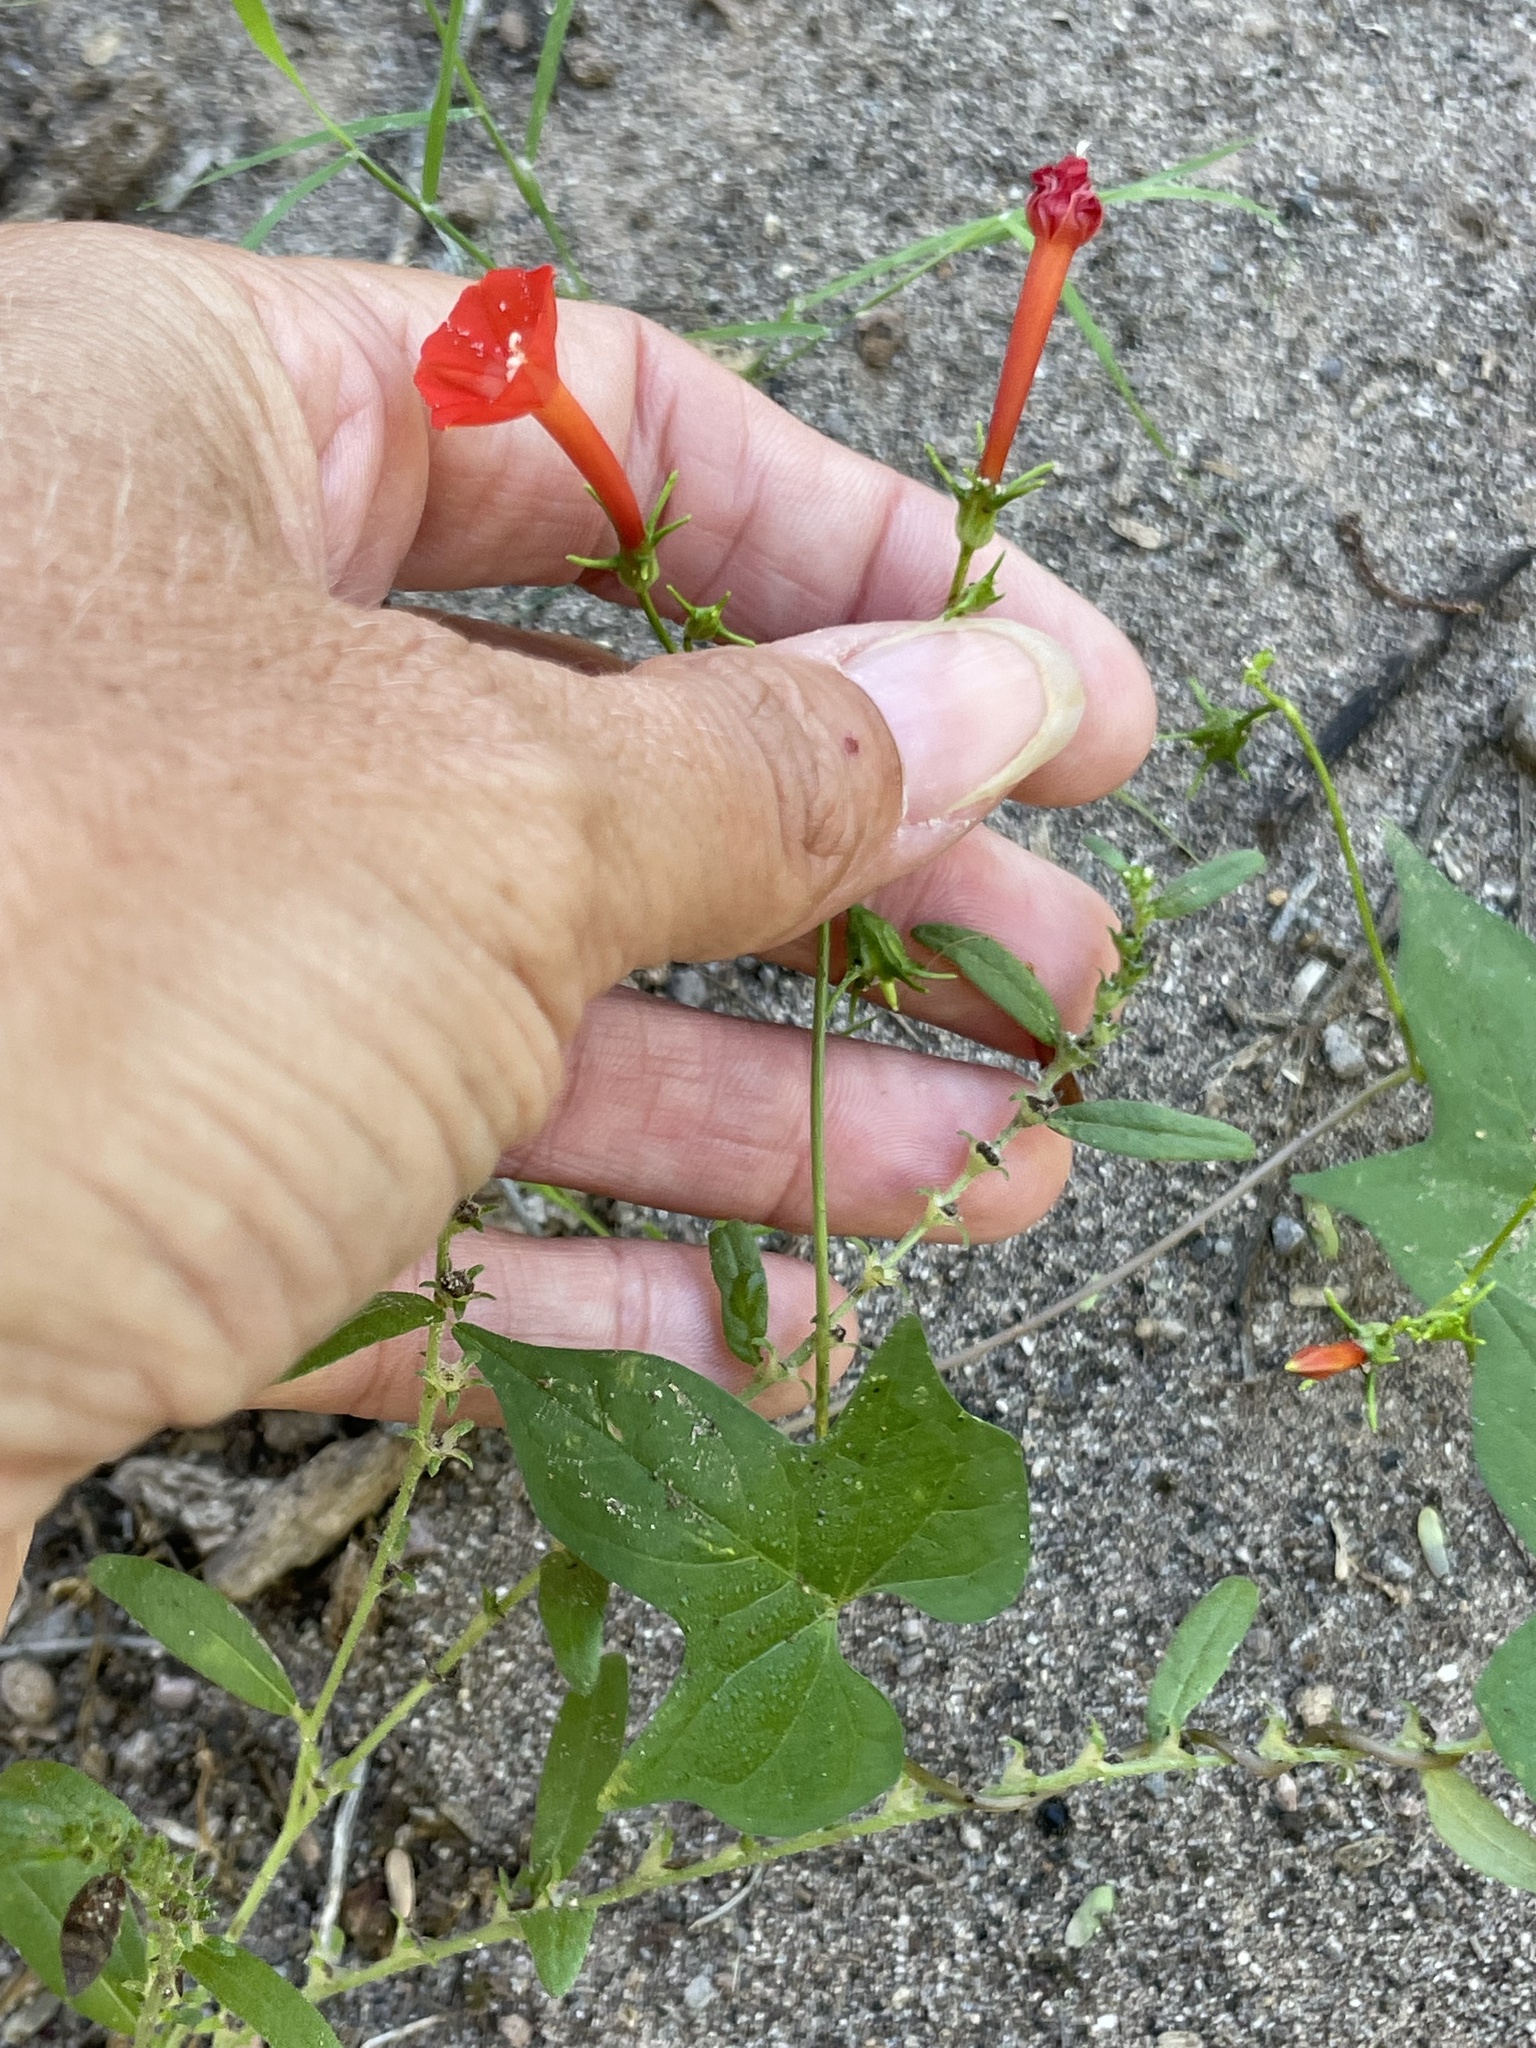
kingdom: Plantae
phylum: Tracheophyta
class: Magnoliopsida
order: Solanales
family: Convolvulaceae
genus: Ipomoea
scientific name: Ipomoea cristulata
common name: Trans-pecos morning-glory
